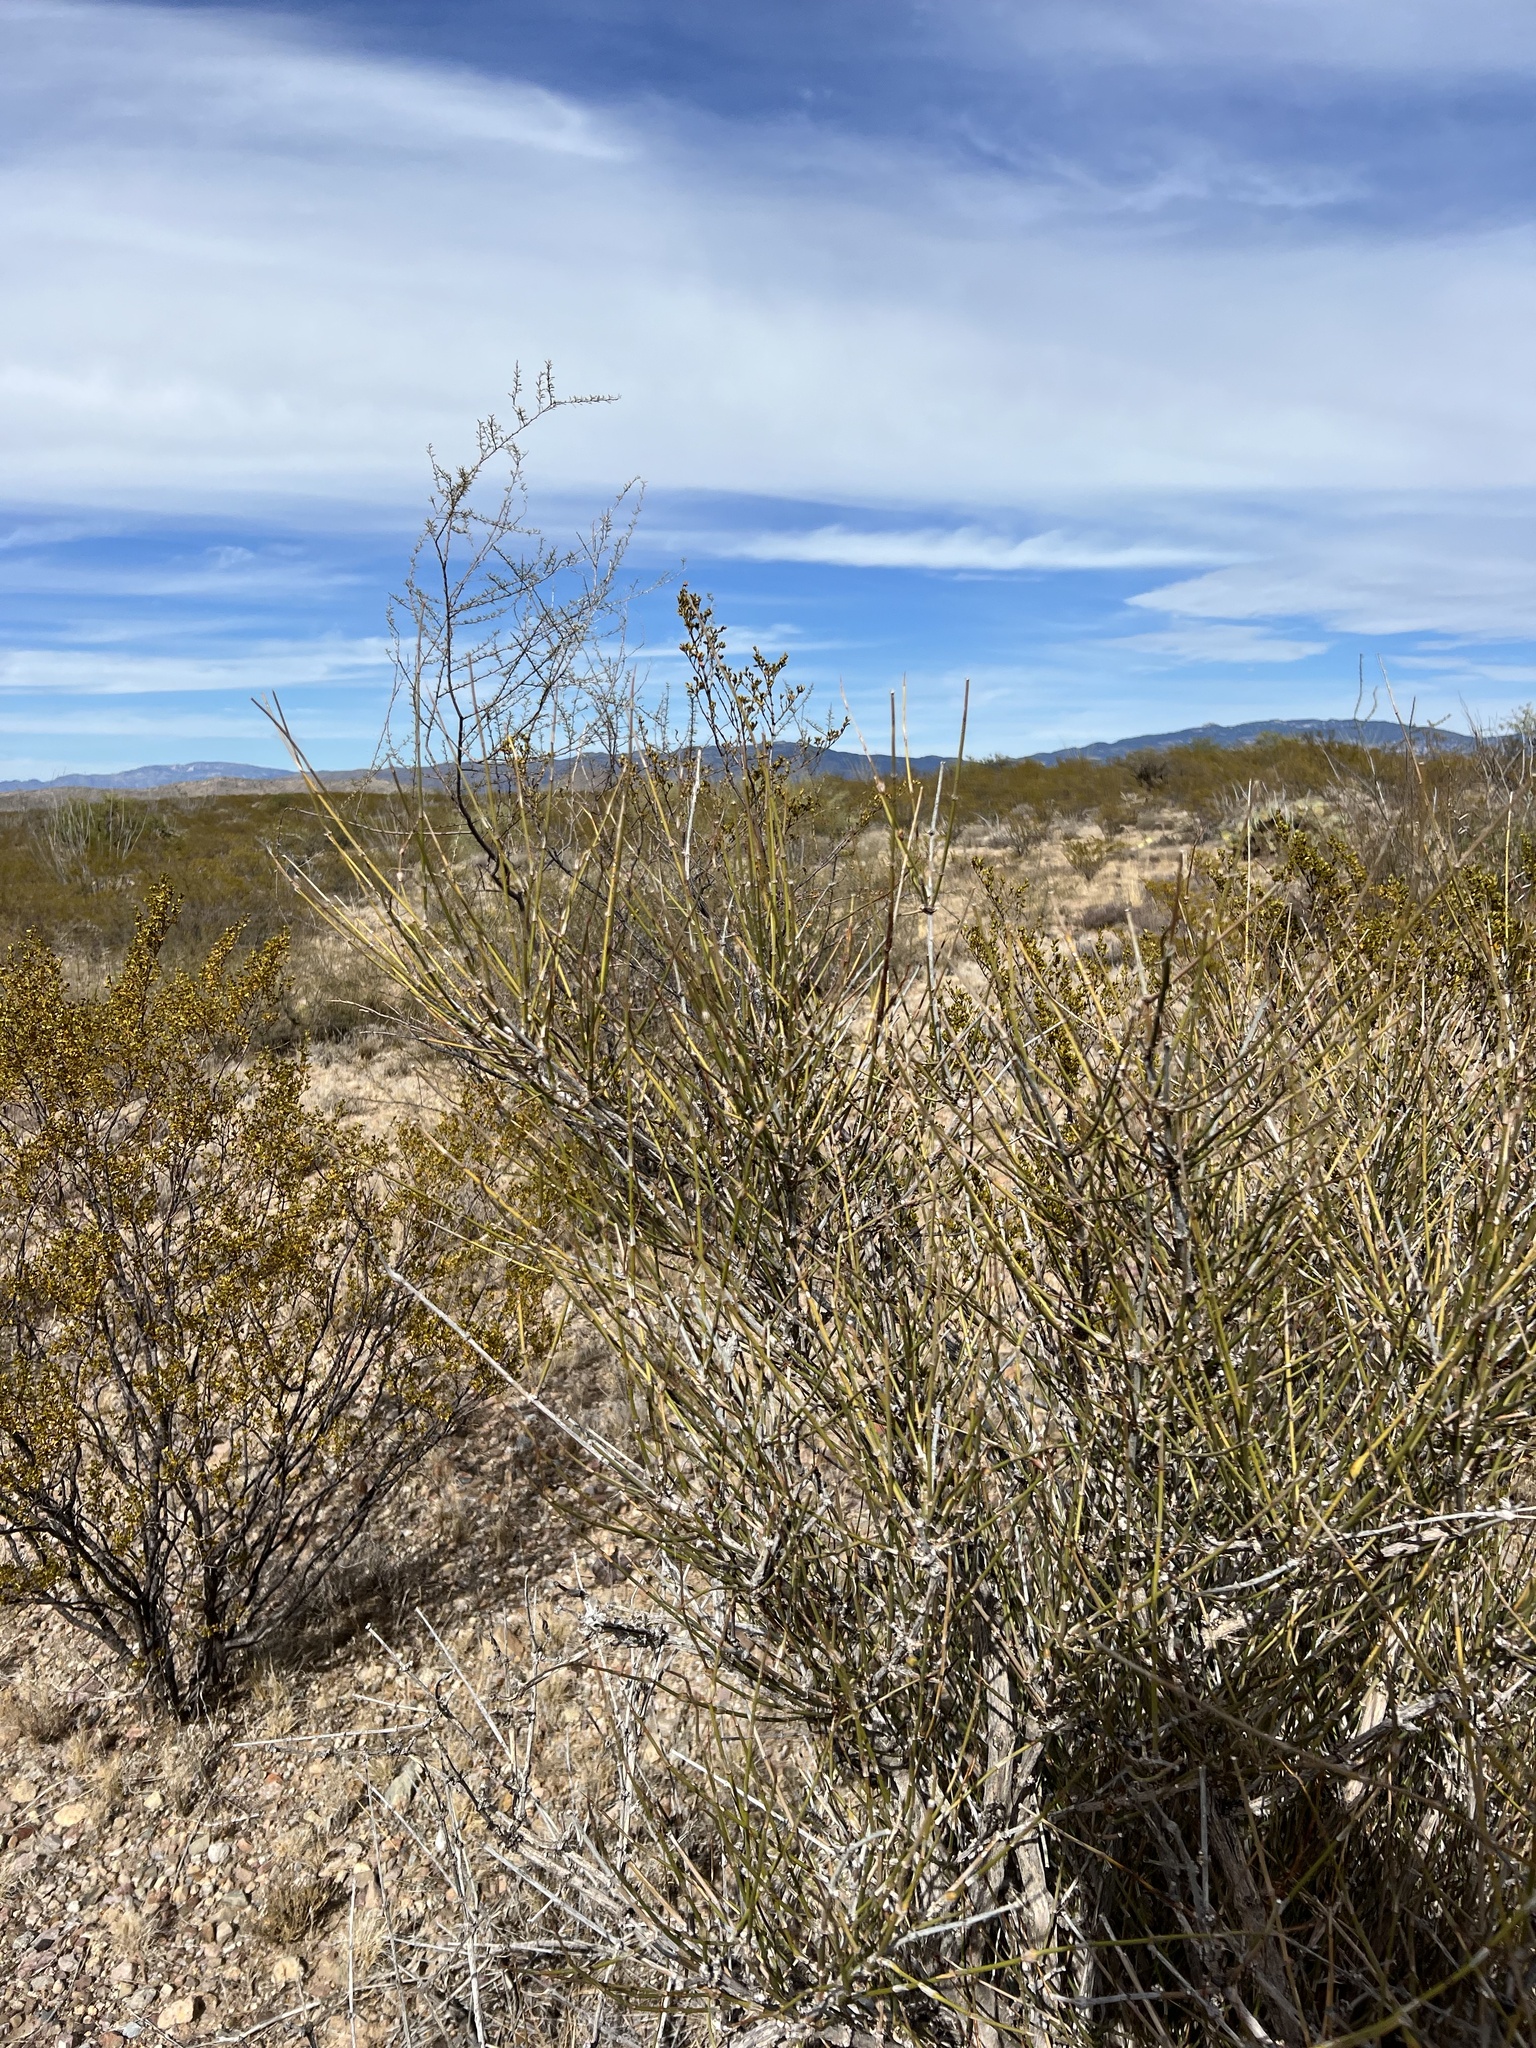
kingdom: Plantae
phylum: Tracheophyta
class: Magnoliopsida
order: Zygophyllales
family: Zygophyllaceae
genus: Larrea
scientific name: Larrea tridentata
